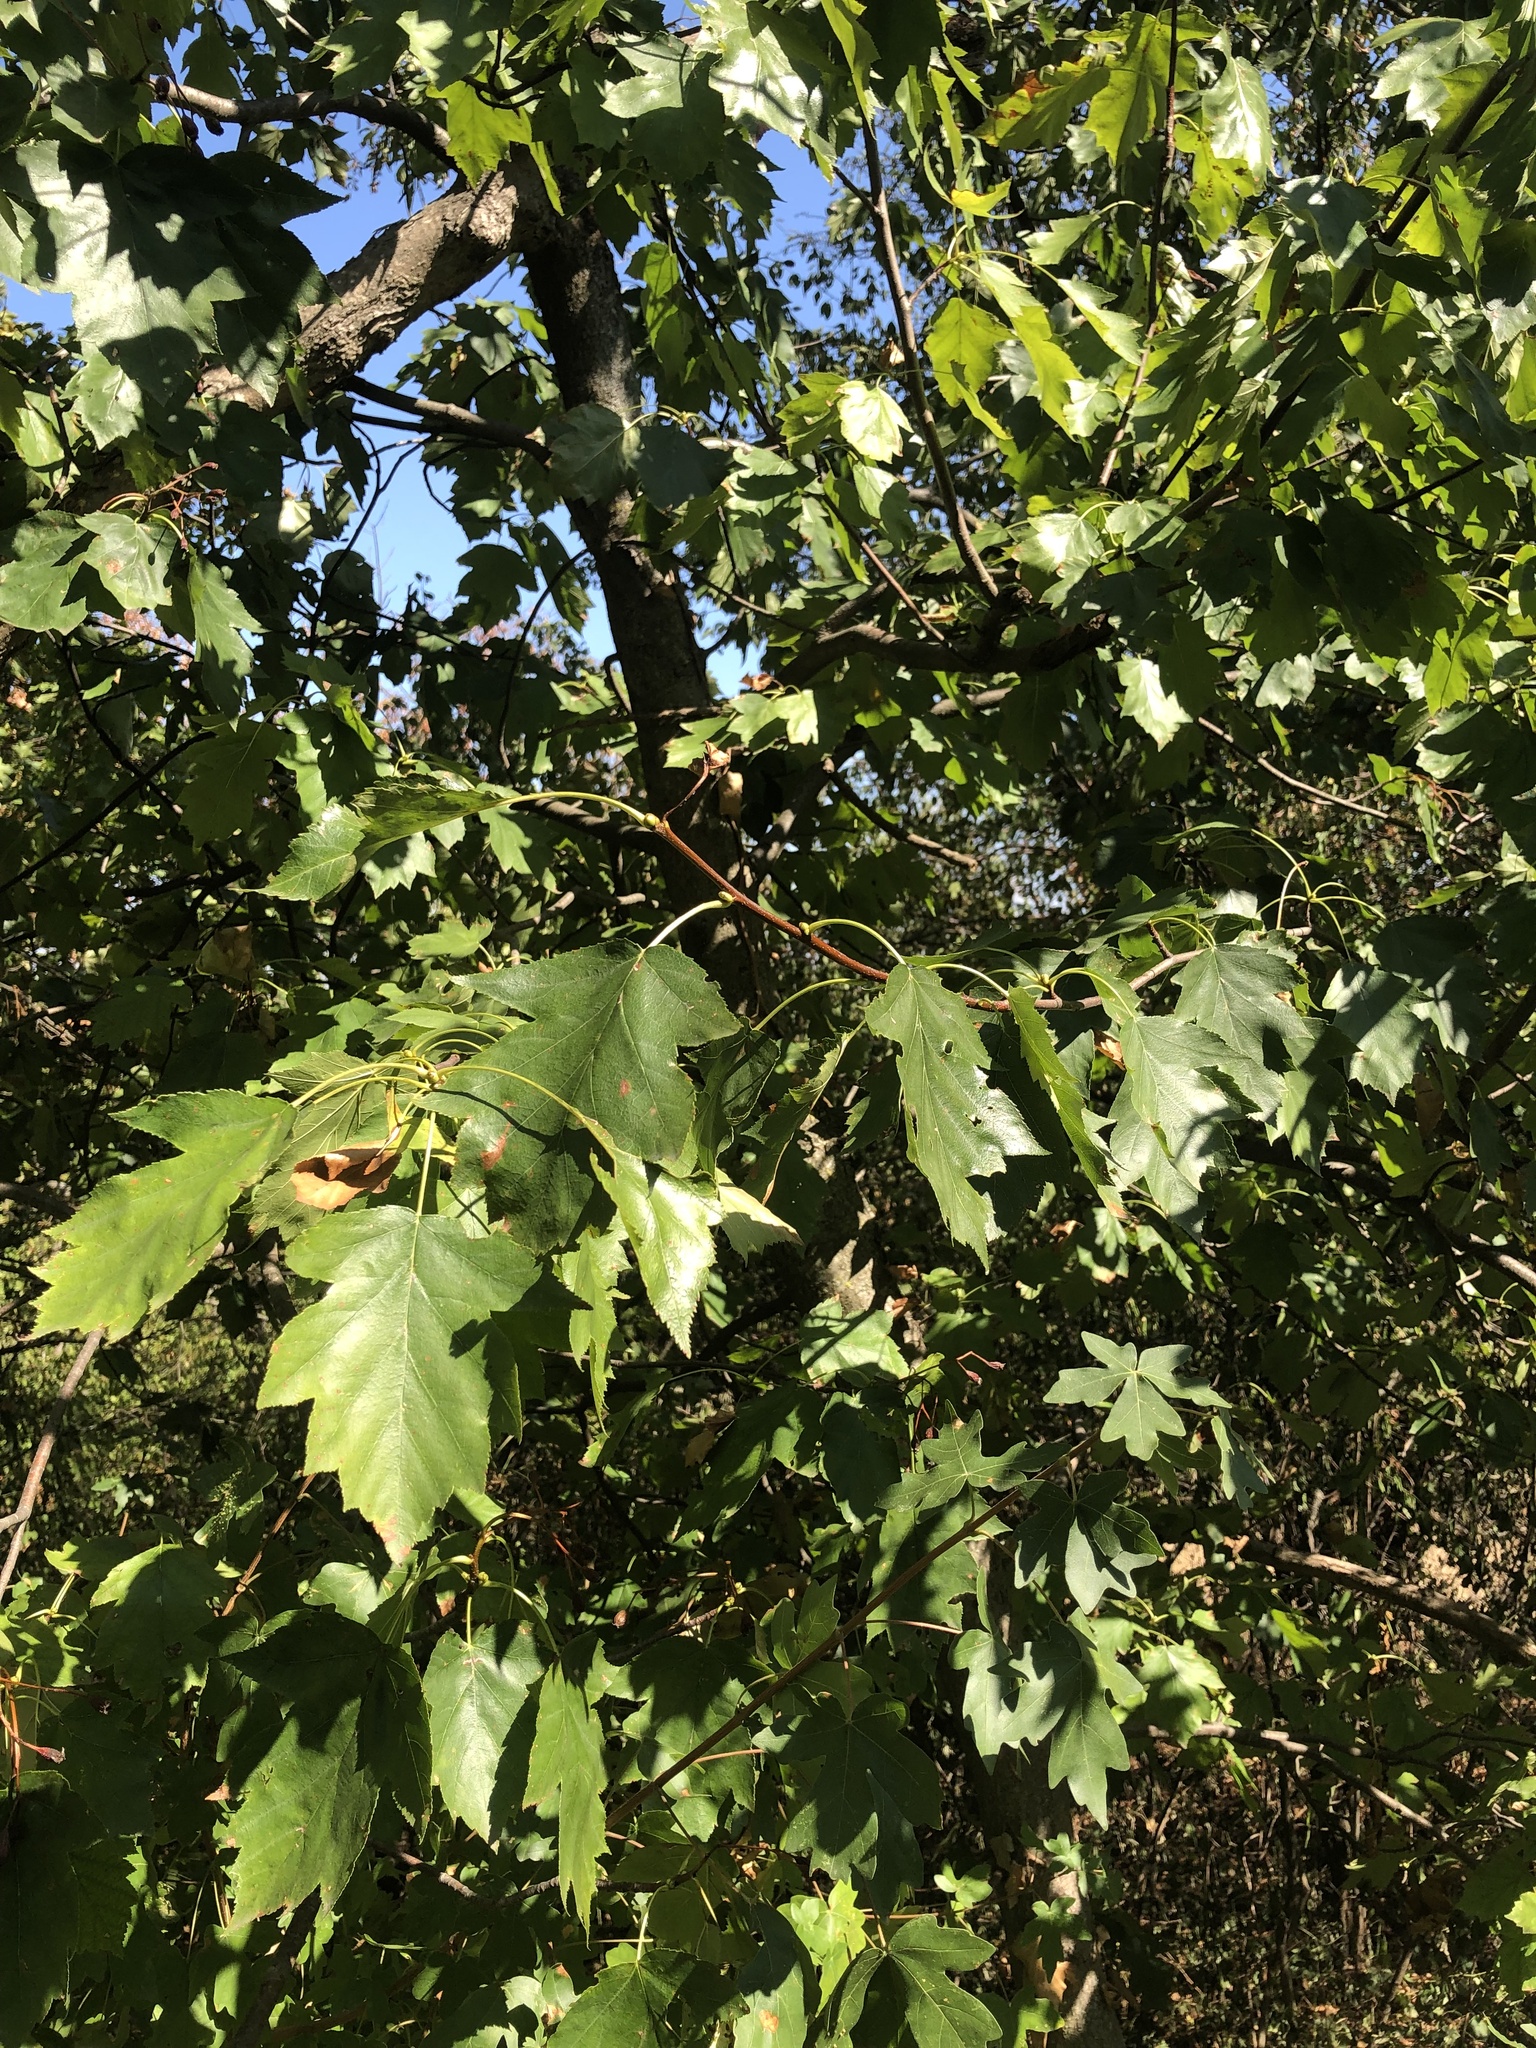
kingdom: Plantae
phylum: Tracheophyta
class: Magnoliopsida
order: Rosales
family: Rosaceae
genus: Torminalis
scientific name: Torminalis glaberrima
